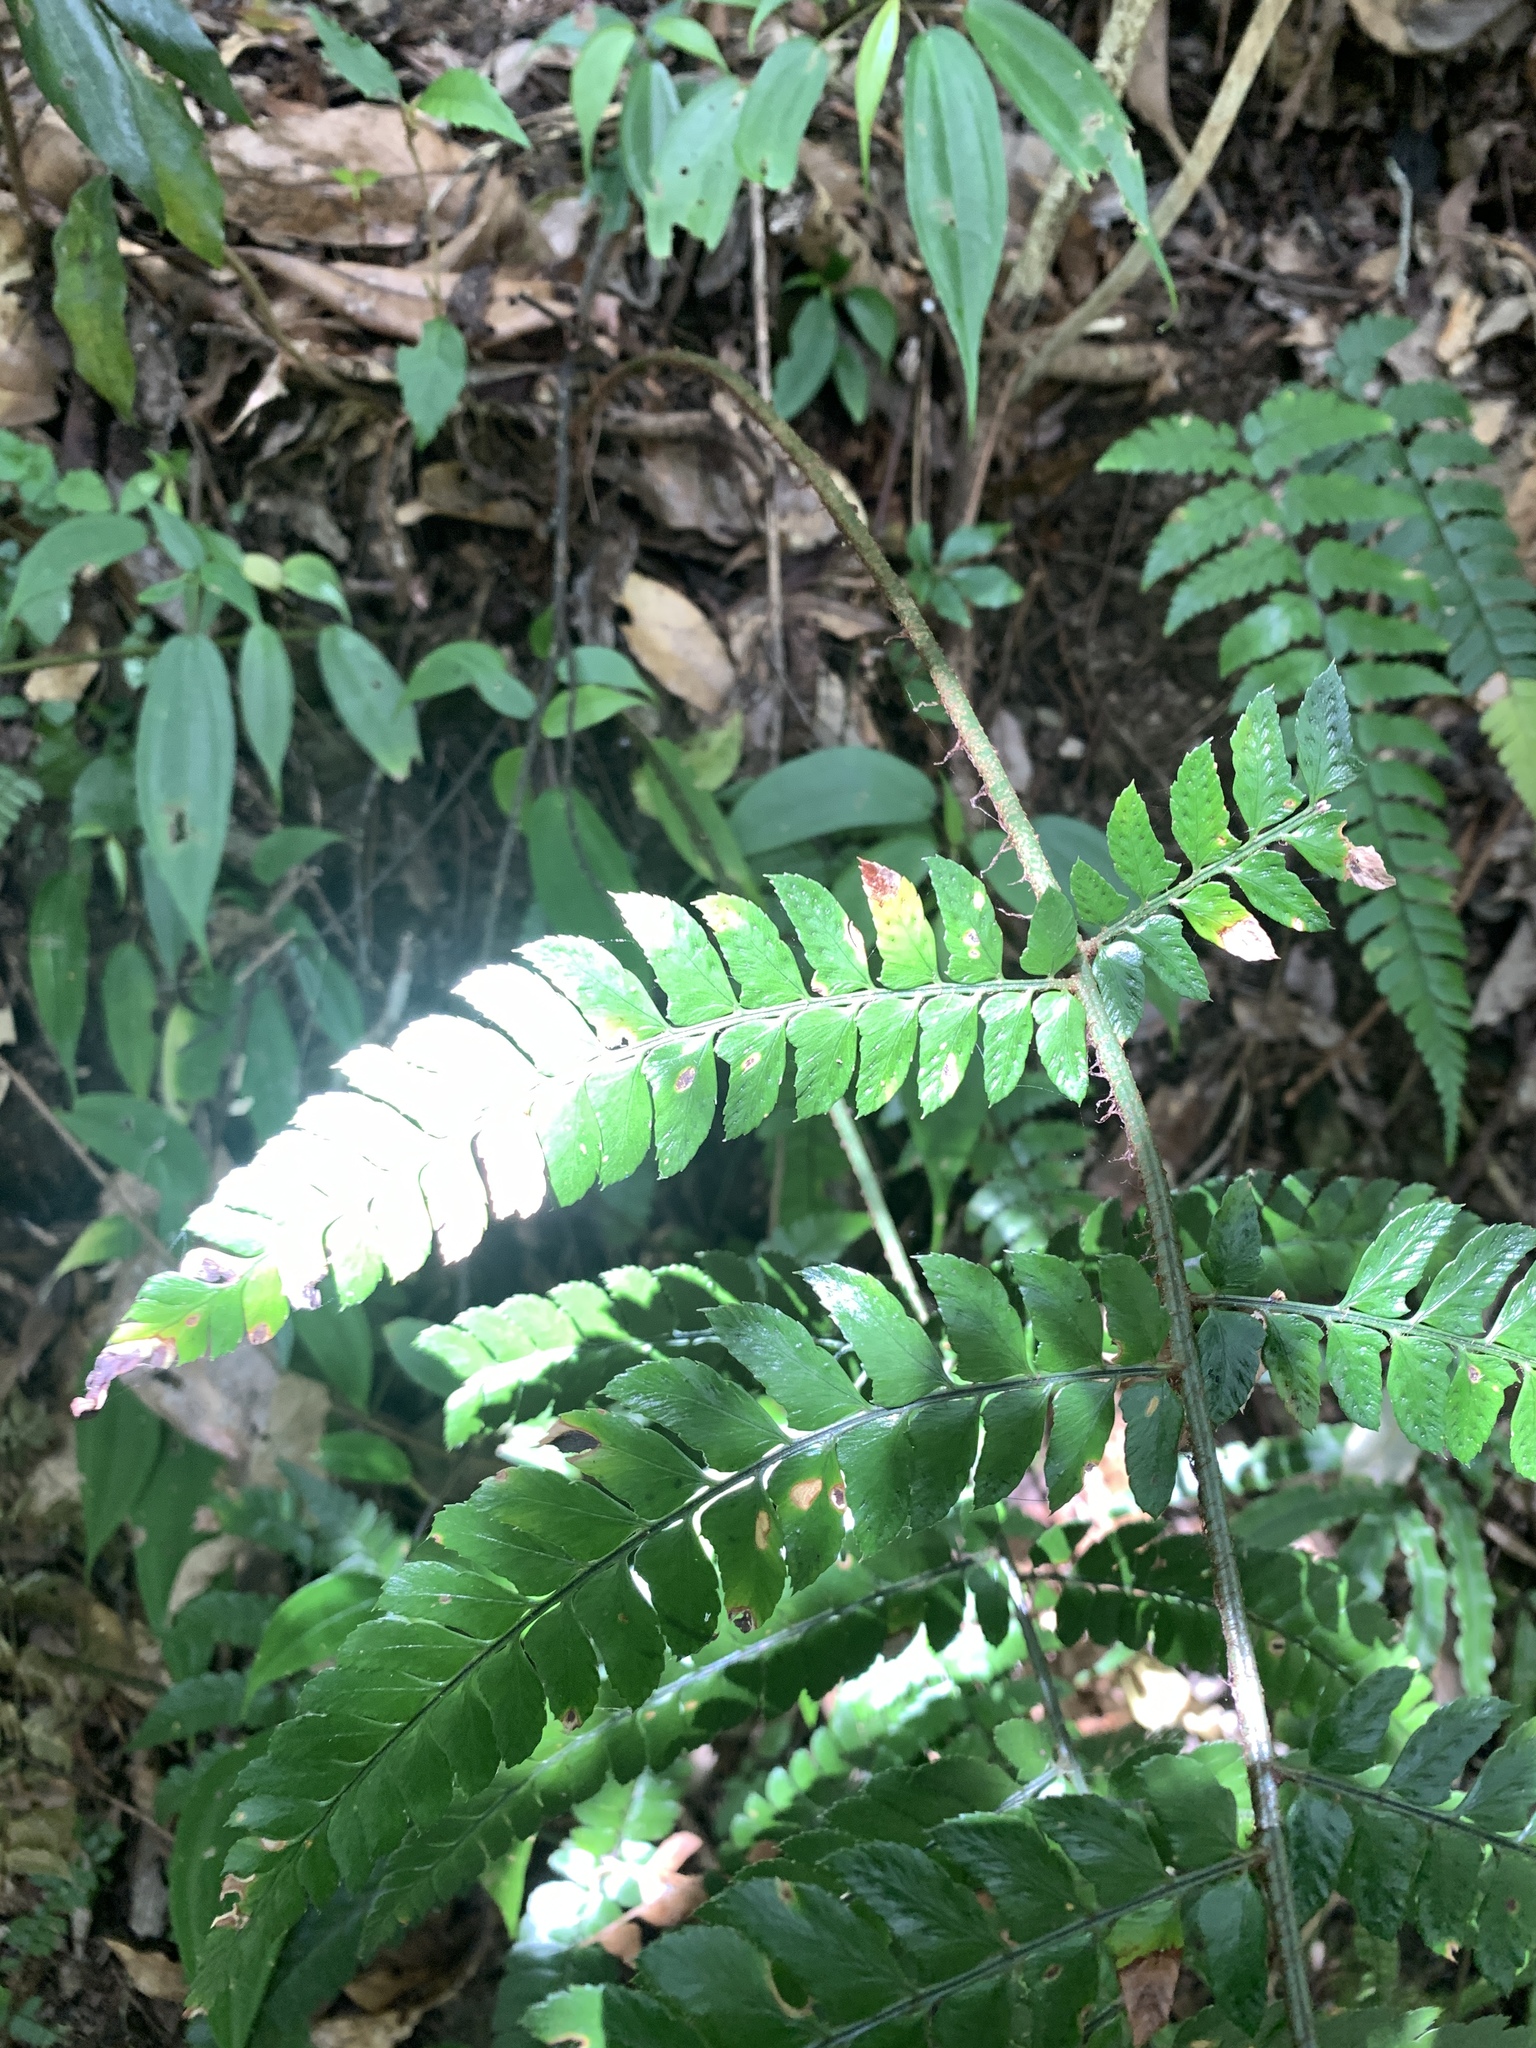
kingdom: Plantae
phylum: Tracheophyta
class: Polypodiopsida
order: Polypodiales
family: Dryopteridaceae
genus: Polystichum
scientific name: Polystichum biaristatum
